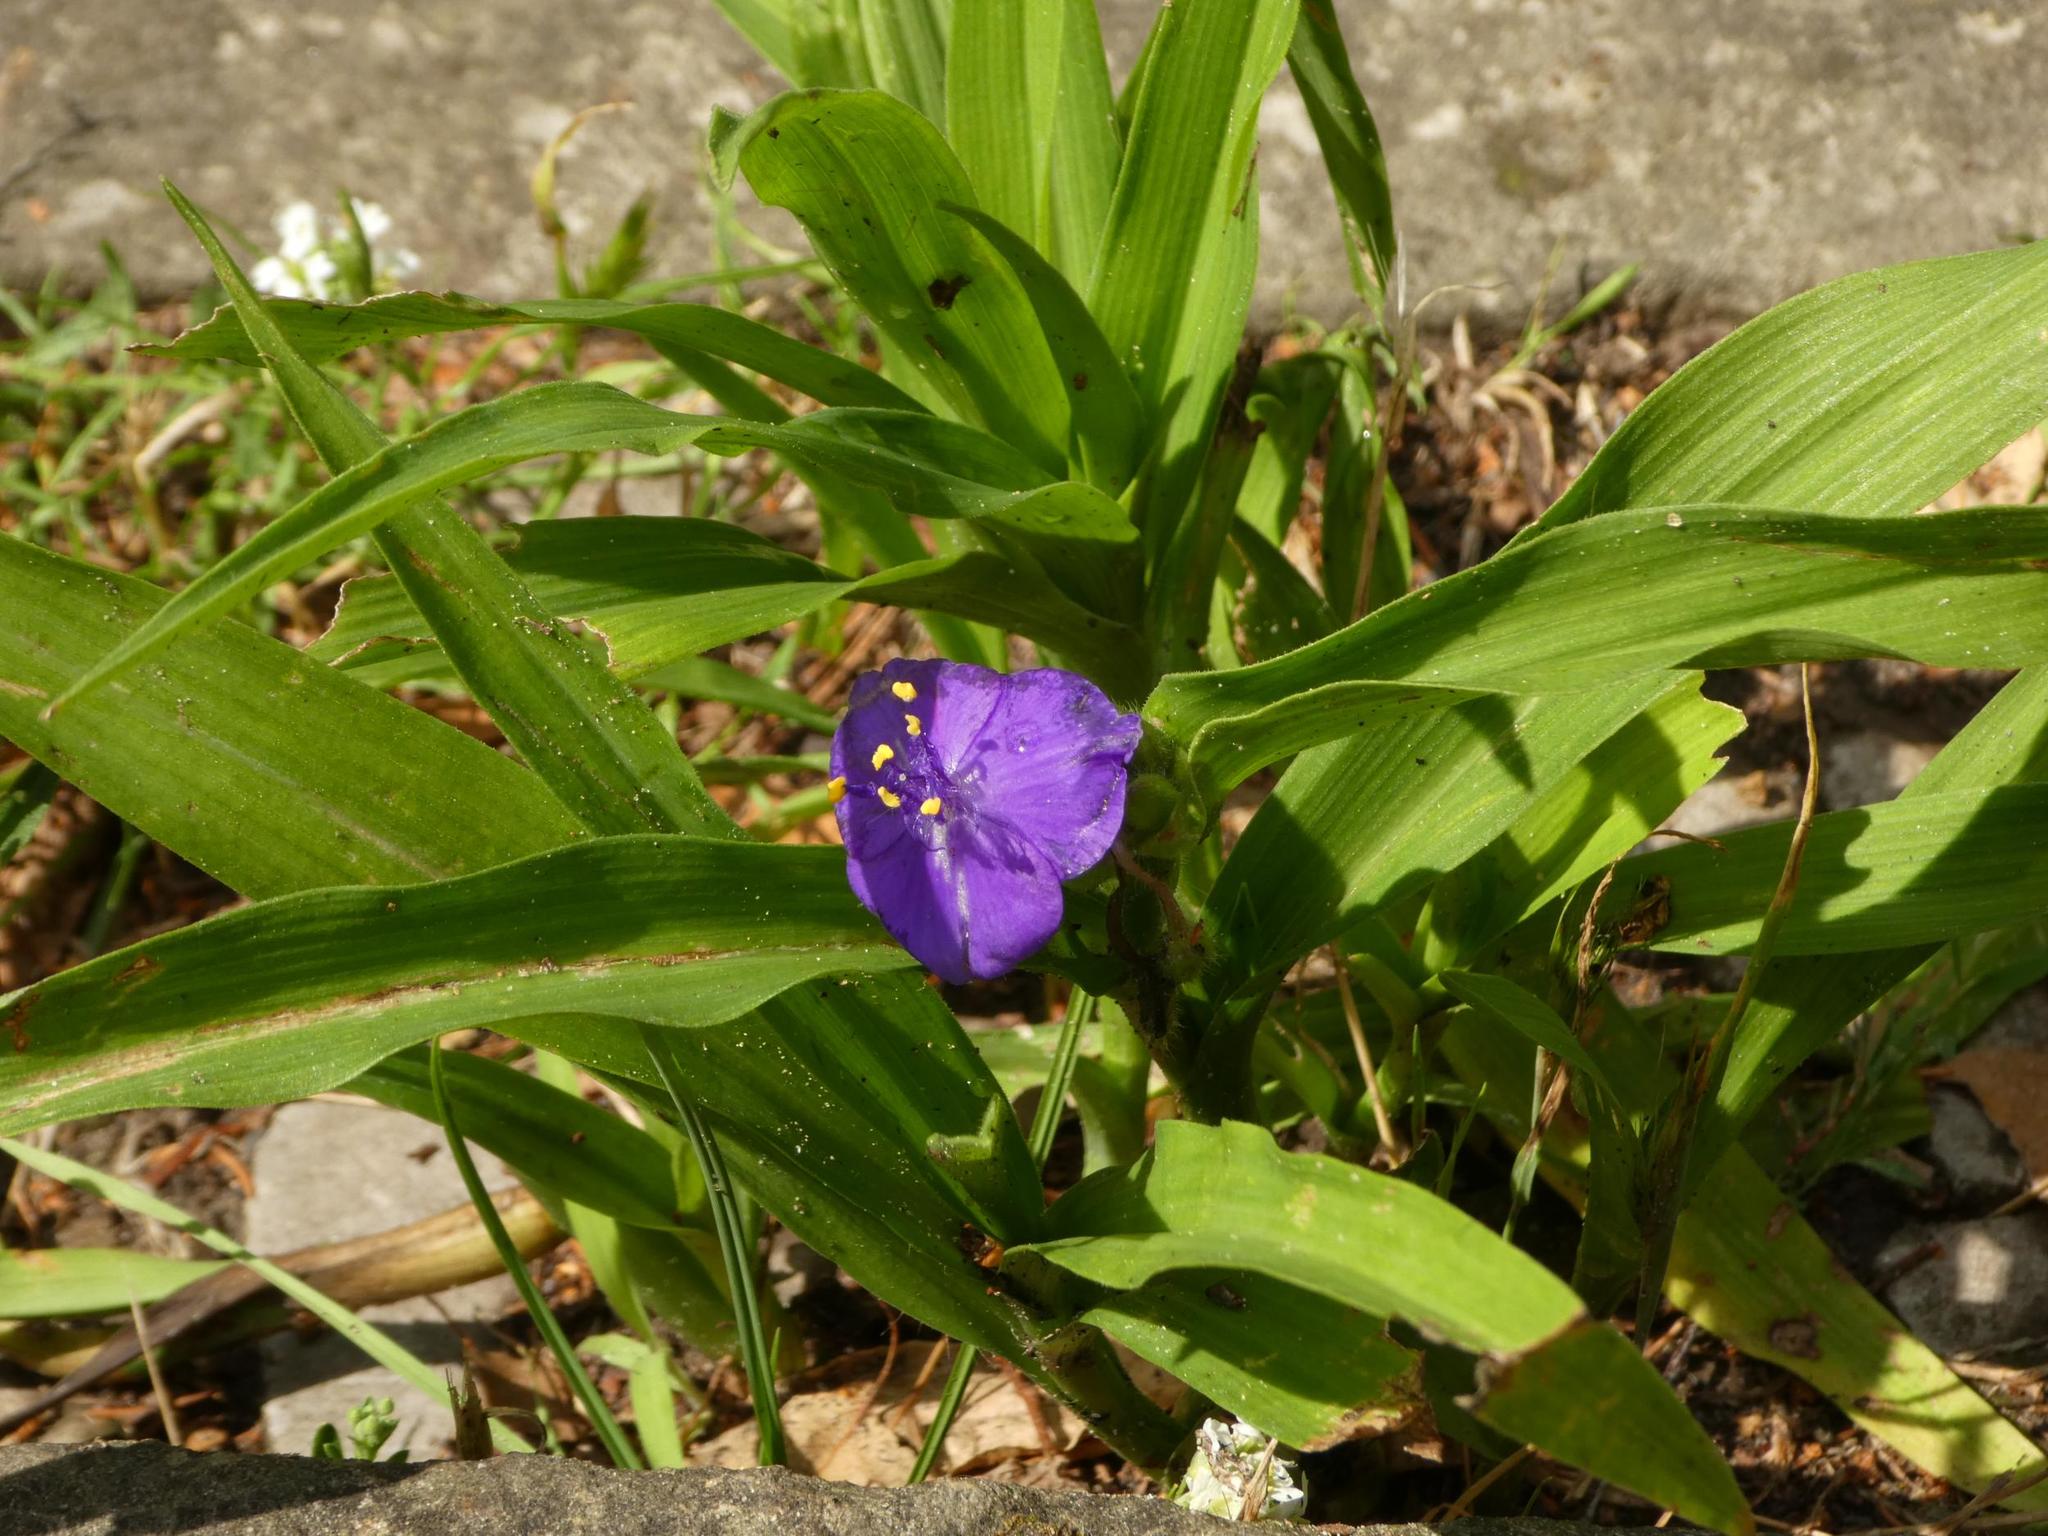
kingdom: Plantae
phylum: Tracheophyta
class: Liliopsida
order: Commelinales
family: Commelinaceae
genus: Tradescantia
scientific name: Tradescantia virginiana
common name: Spiderwort
